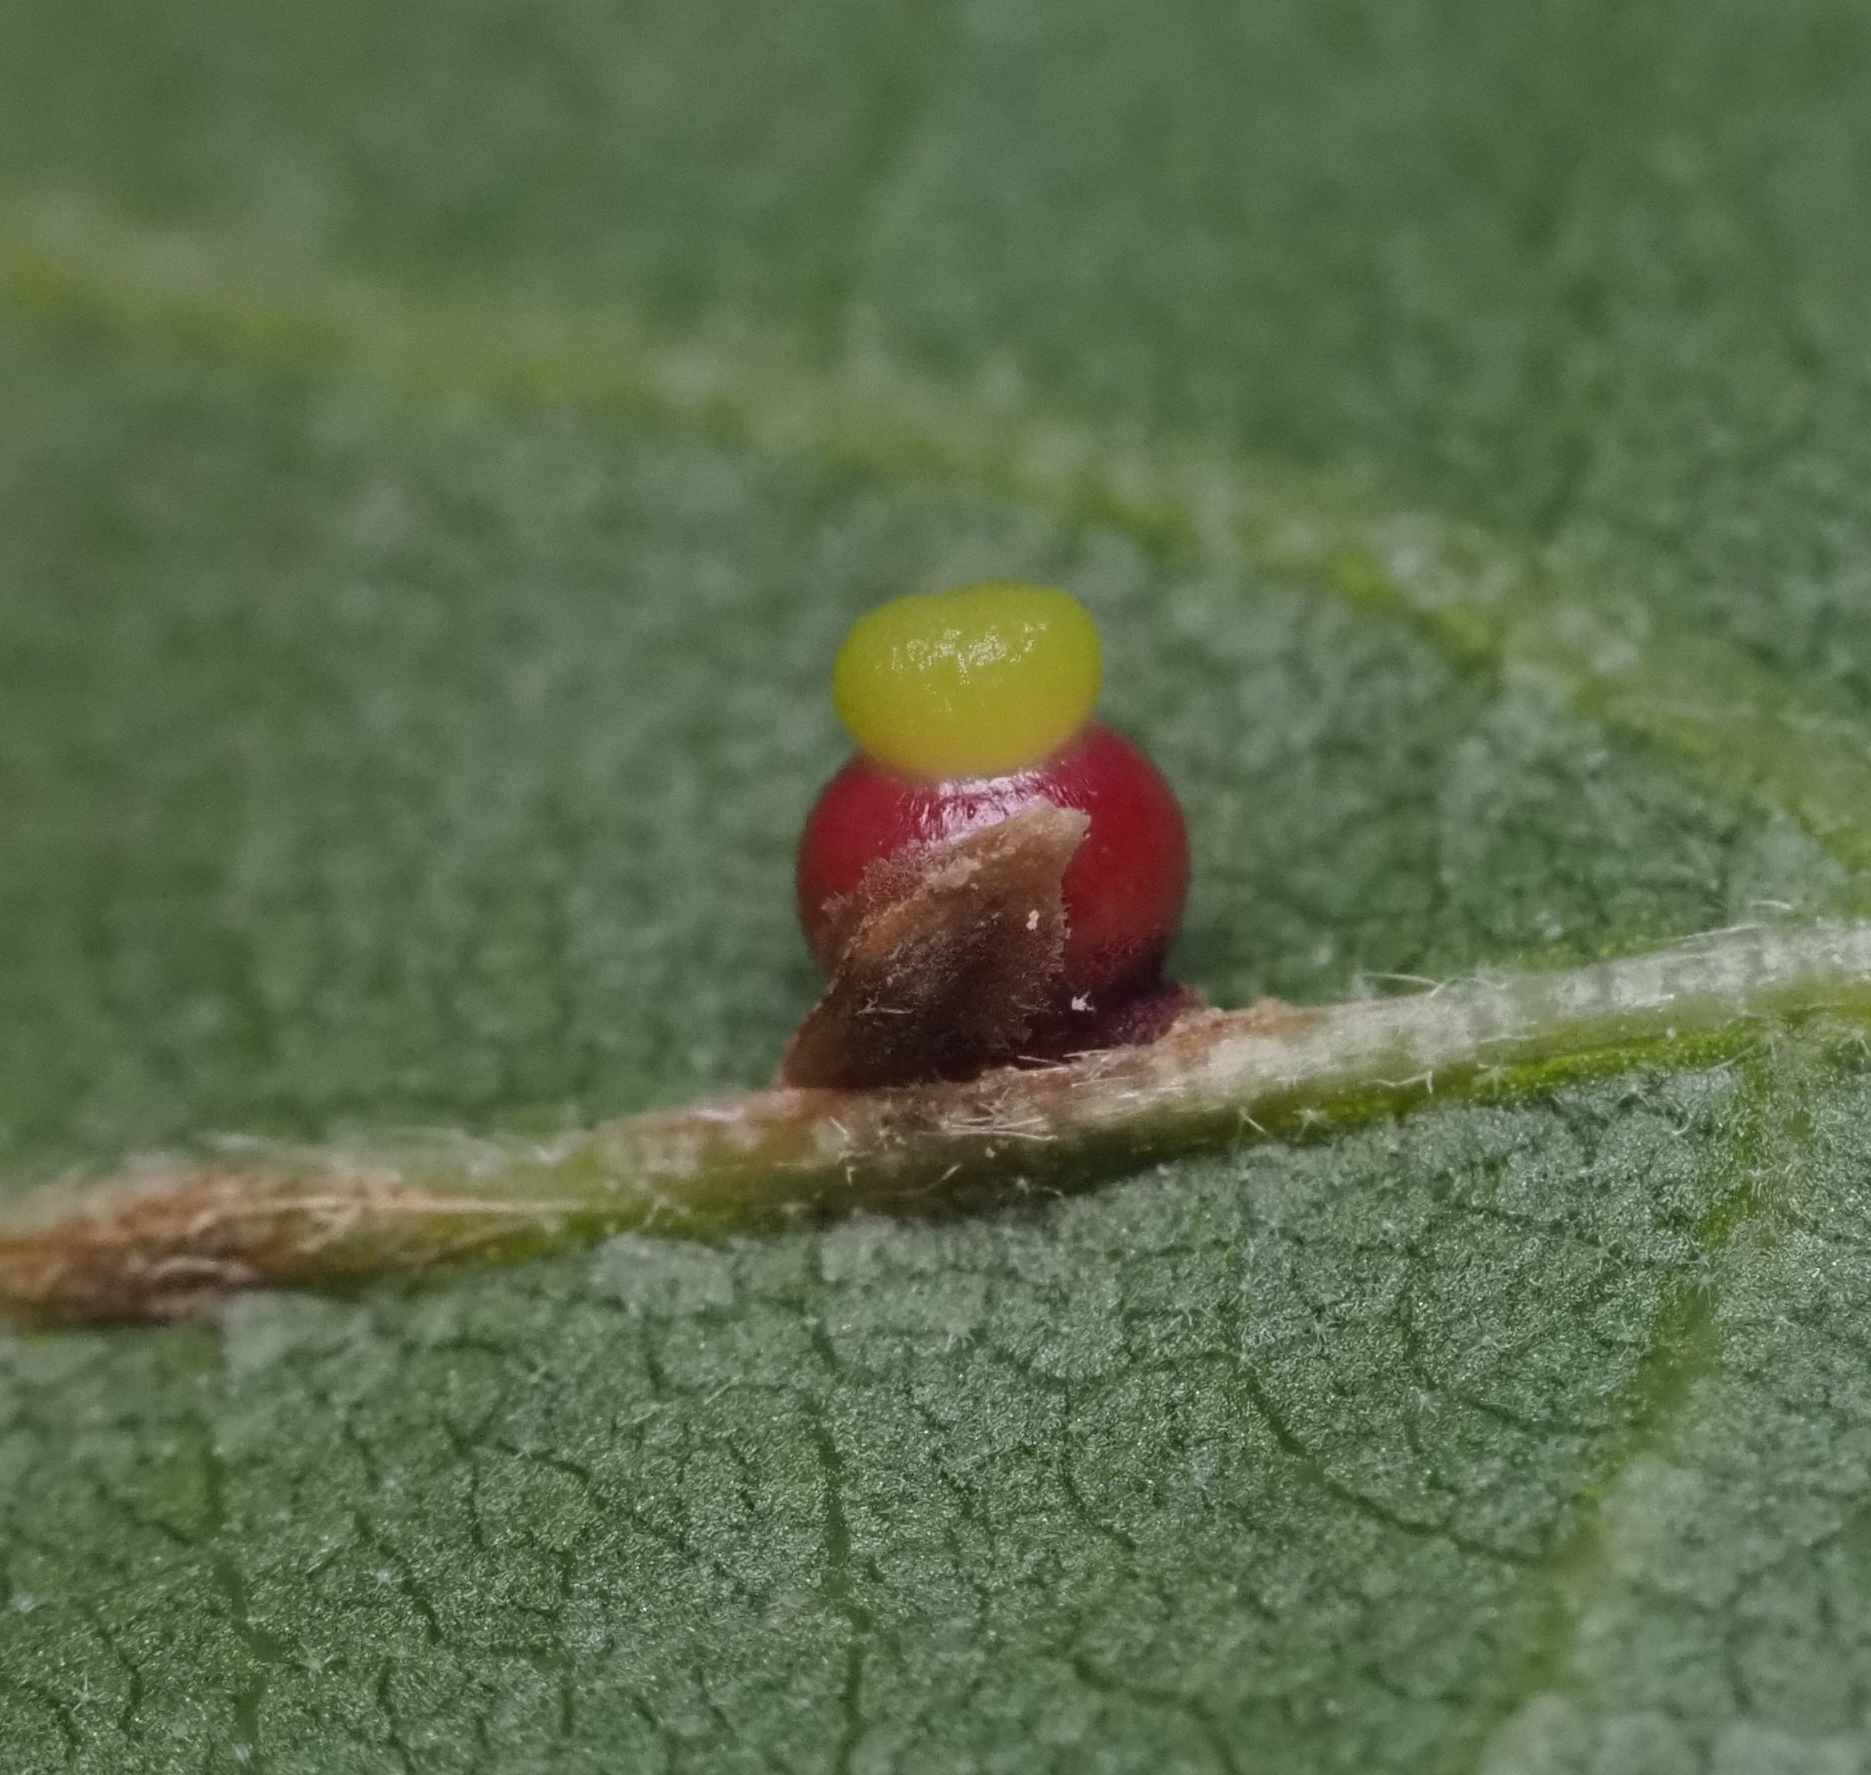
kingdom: Animalia
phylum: Arthropoda
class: Insecta
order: Hymenoptera
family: Cynipidae
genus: Callirhytis
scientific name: Callirhytis
